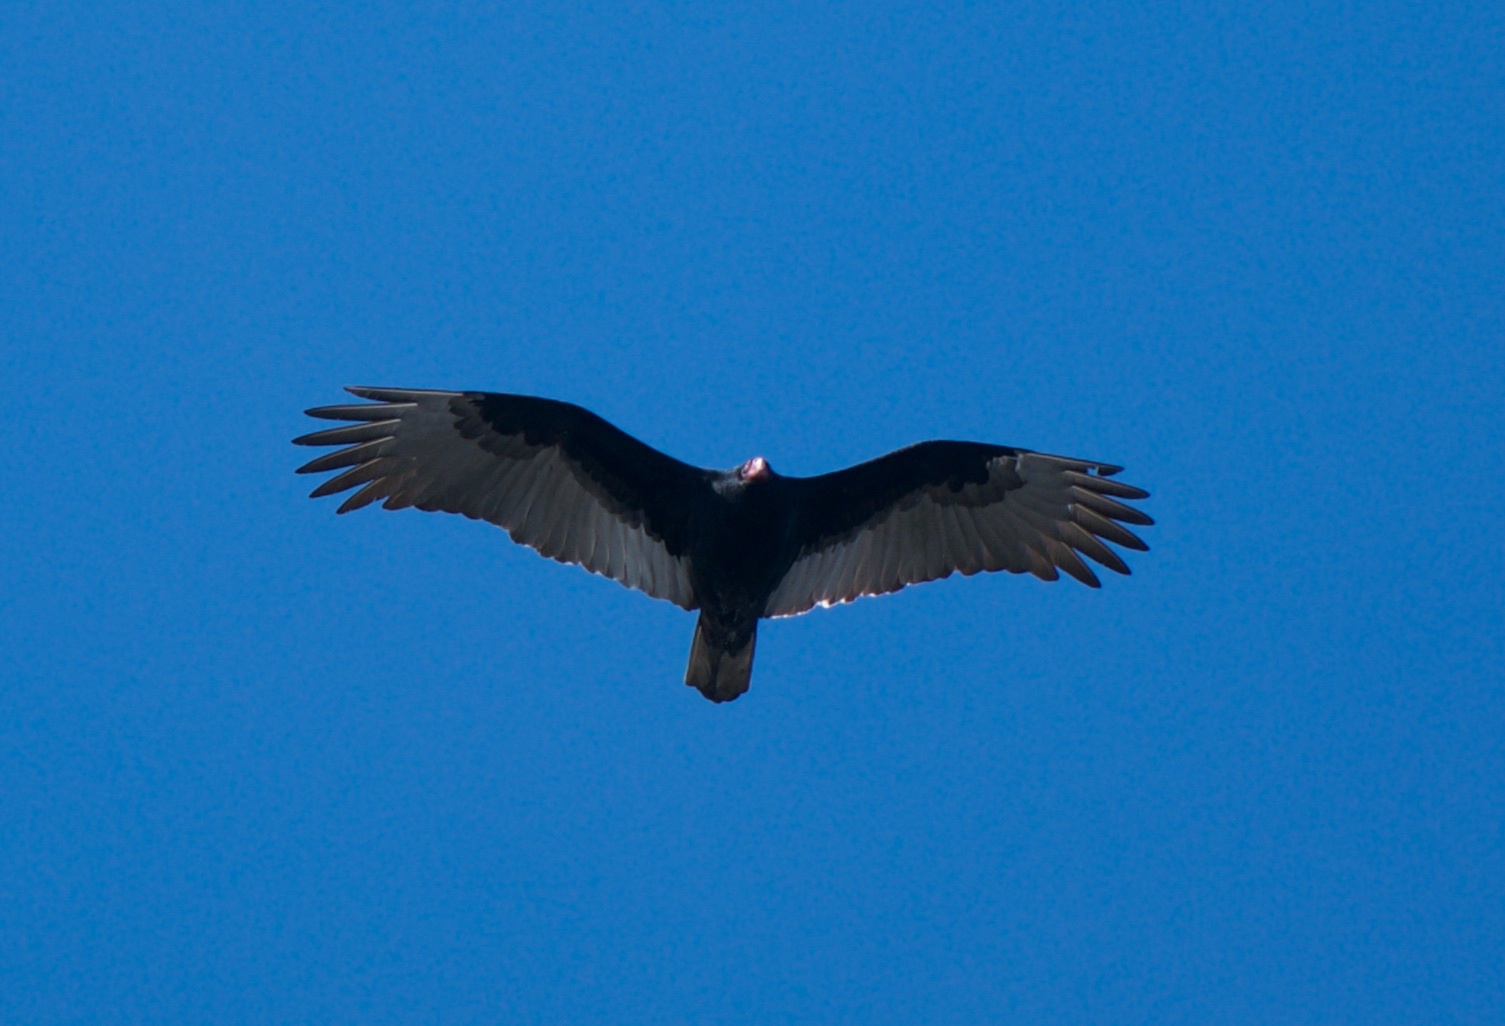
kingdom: Animalia
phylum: Chordata
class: Aves
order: Accipitriformes
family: Cathartidae
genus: Cathartes
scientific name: Cathartes aura
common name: Turkey vulture
